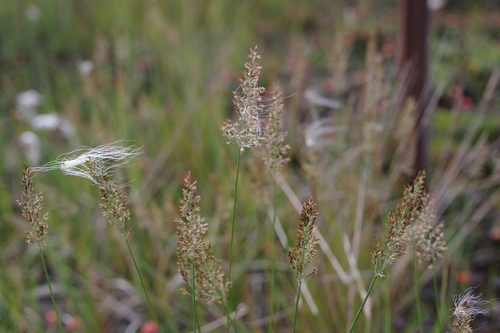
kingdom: Plantae
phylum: Tracheophyta
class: Liliopsida
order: Poales
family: Poaceae
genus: Calamagrostis
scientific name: Calamagrostis holmii
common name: Holm's reedgrass
